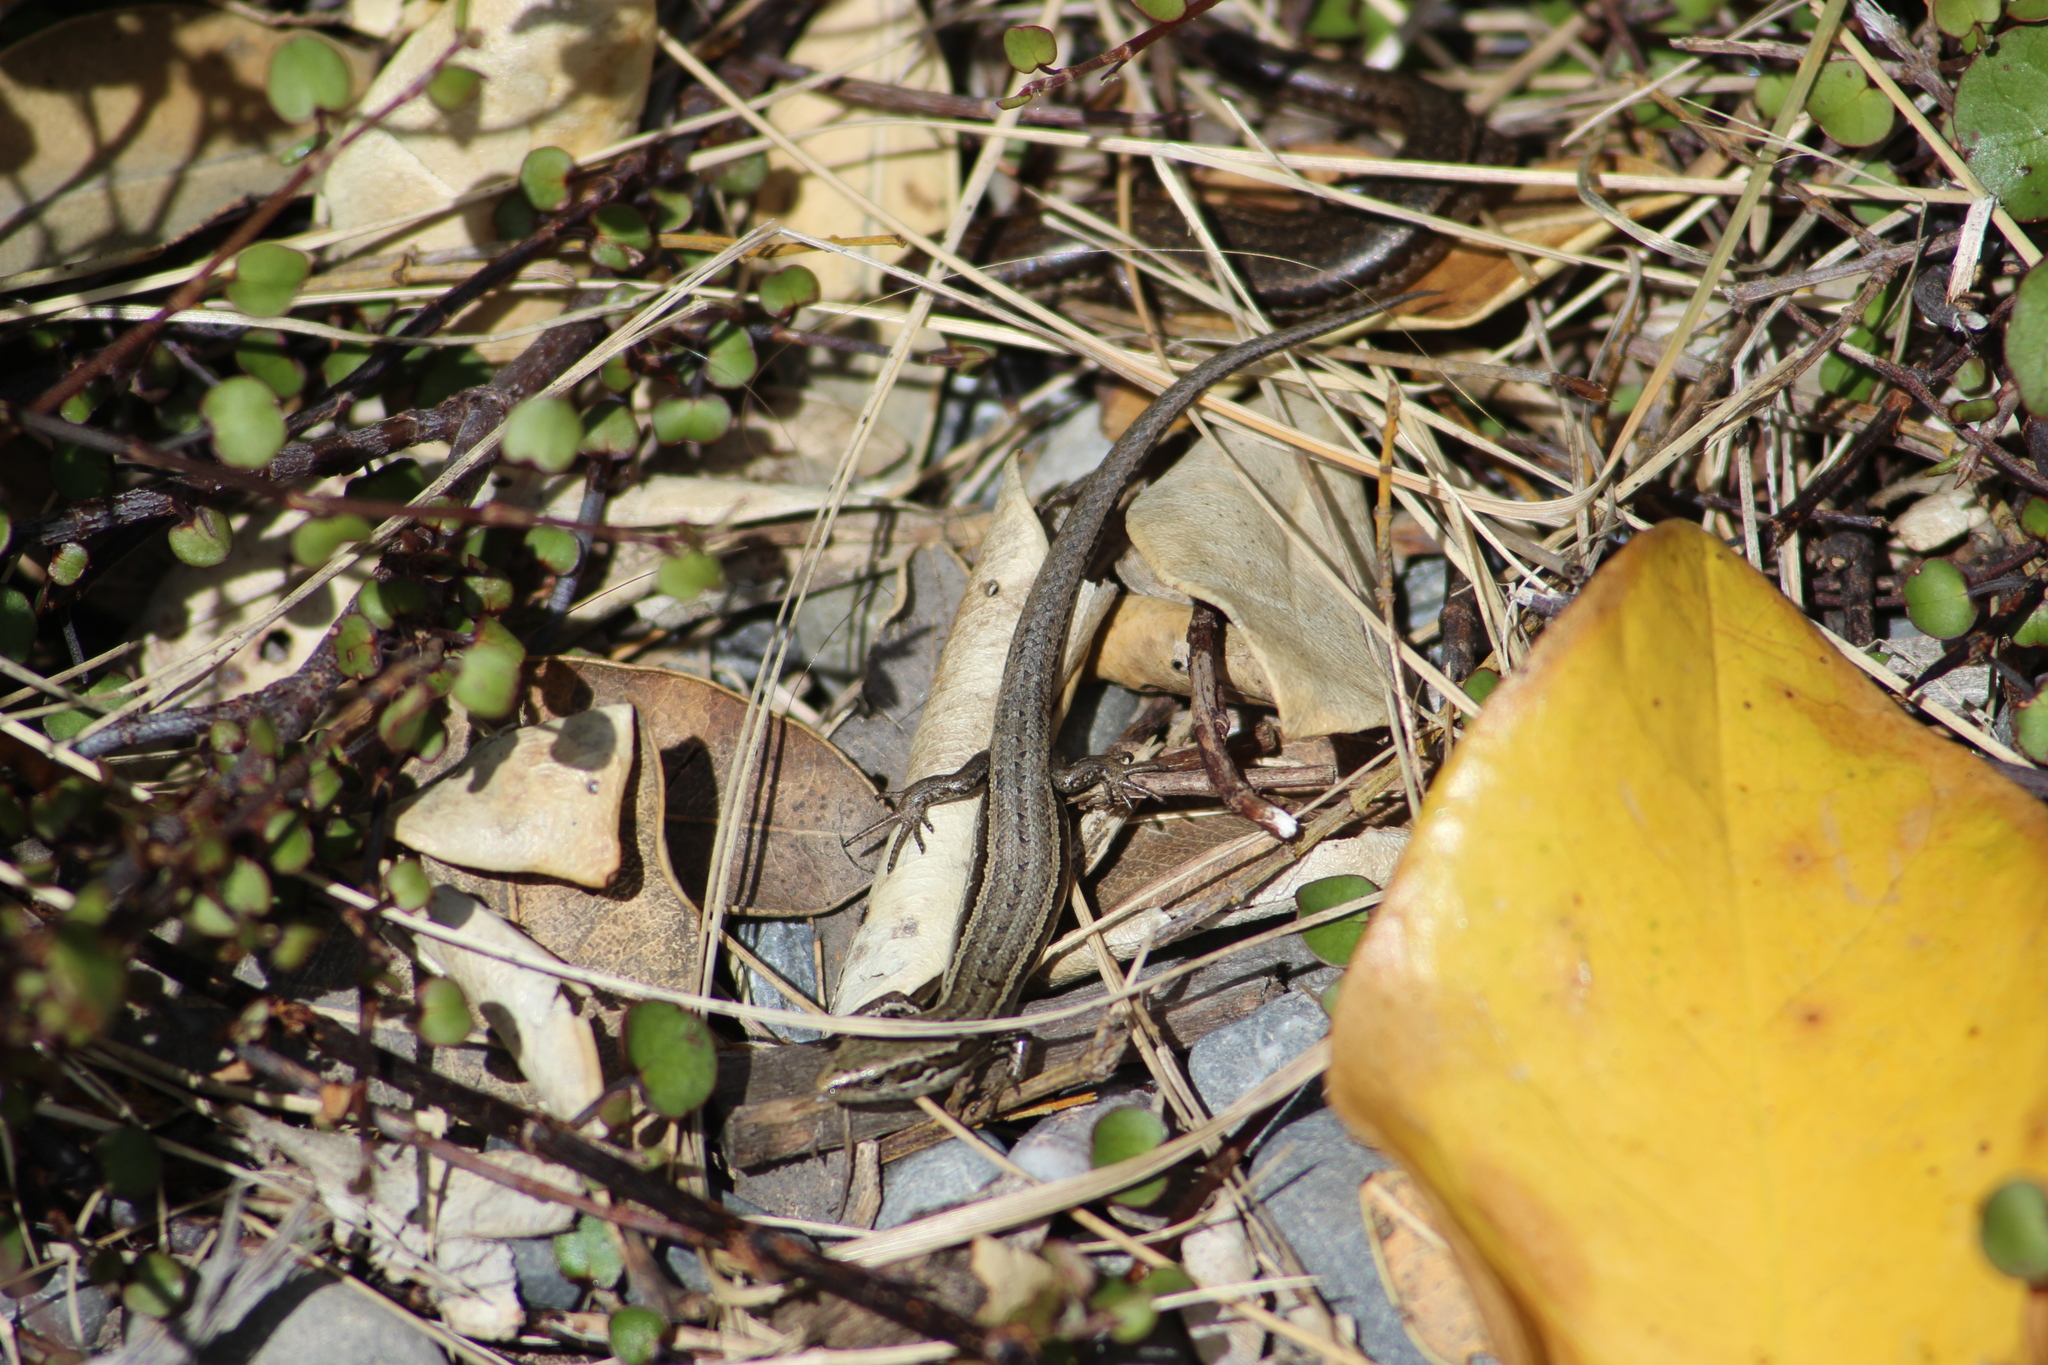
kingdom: Animalia
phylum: Chordata
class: Squamata
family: Scincidae
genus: Oligosoma
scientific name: Oligosoma polychroma
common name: Common new zealand skink
